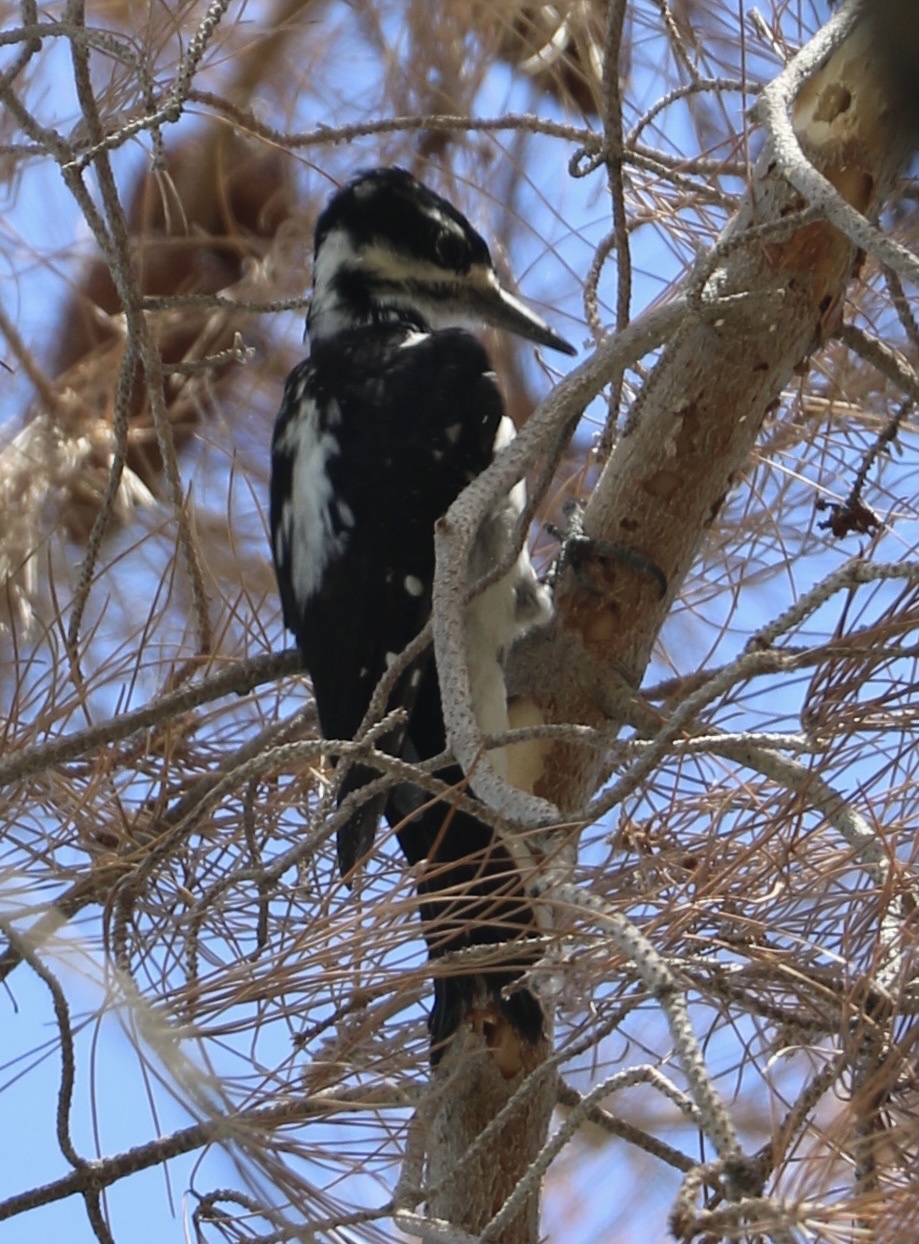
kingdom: Animalia
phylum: Chordata
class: Aves
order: Piciformes
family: Picidae
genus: Leuconotopicus
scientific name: Leuconotopicus villosus
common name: Hairy woodpecker
